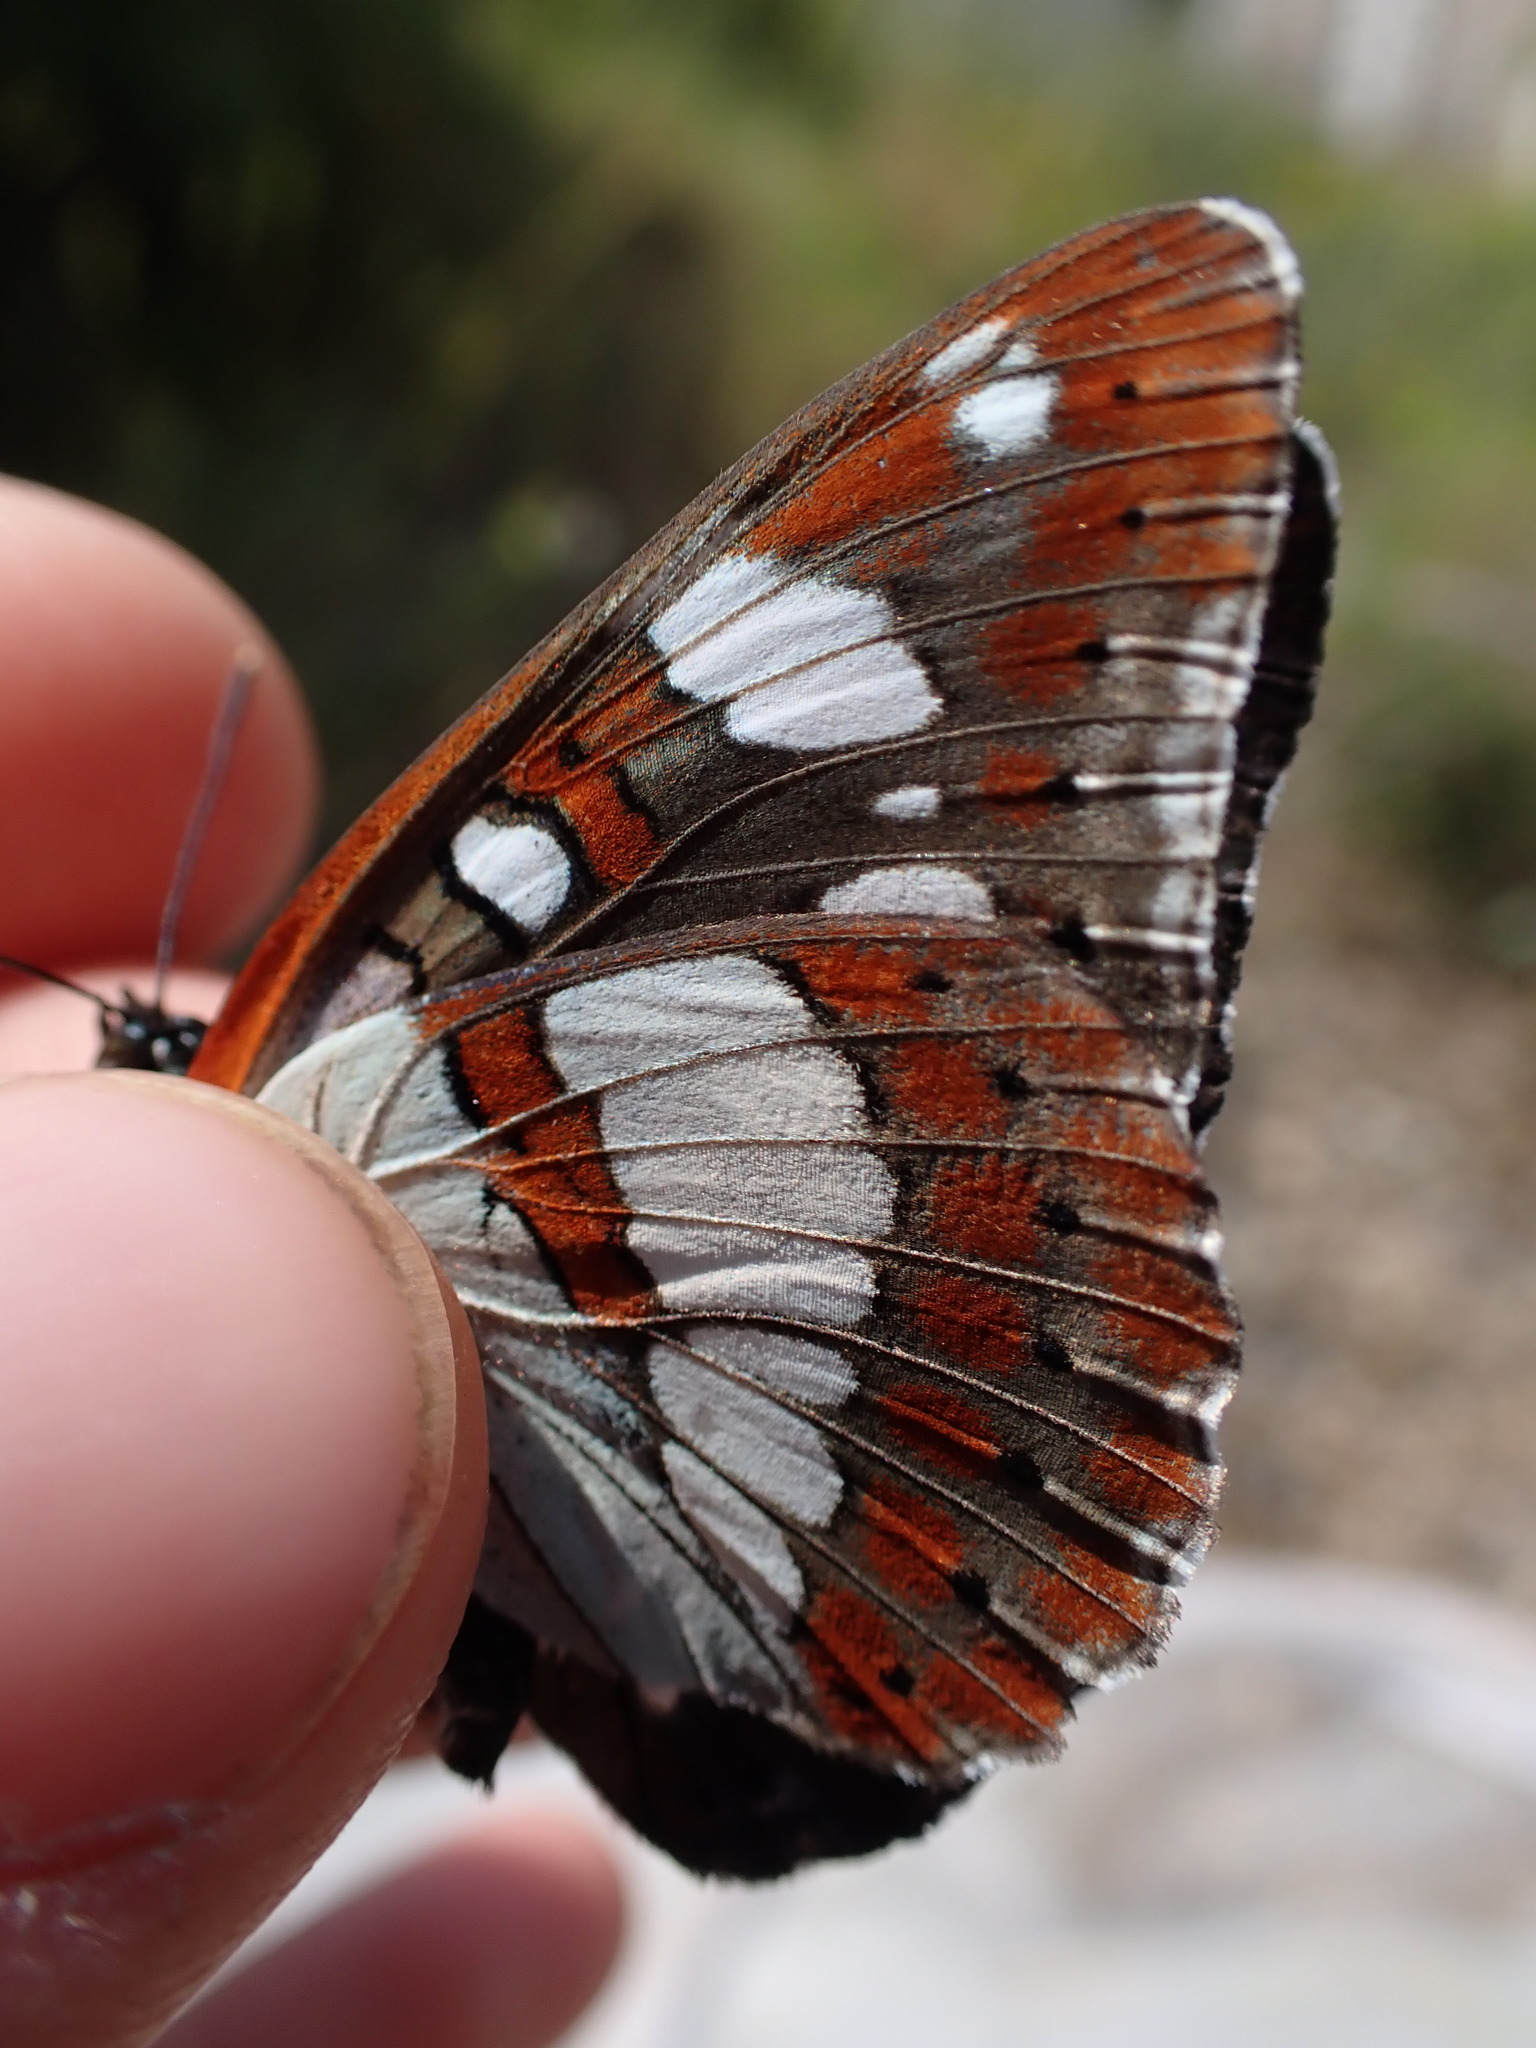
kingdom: Animalia
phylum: Arthropoda
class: Insecta
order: Lepidoptera
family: Nymphalidae
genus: Limenitis
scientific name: Limenitis reducta
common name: Southern white admiral
